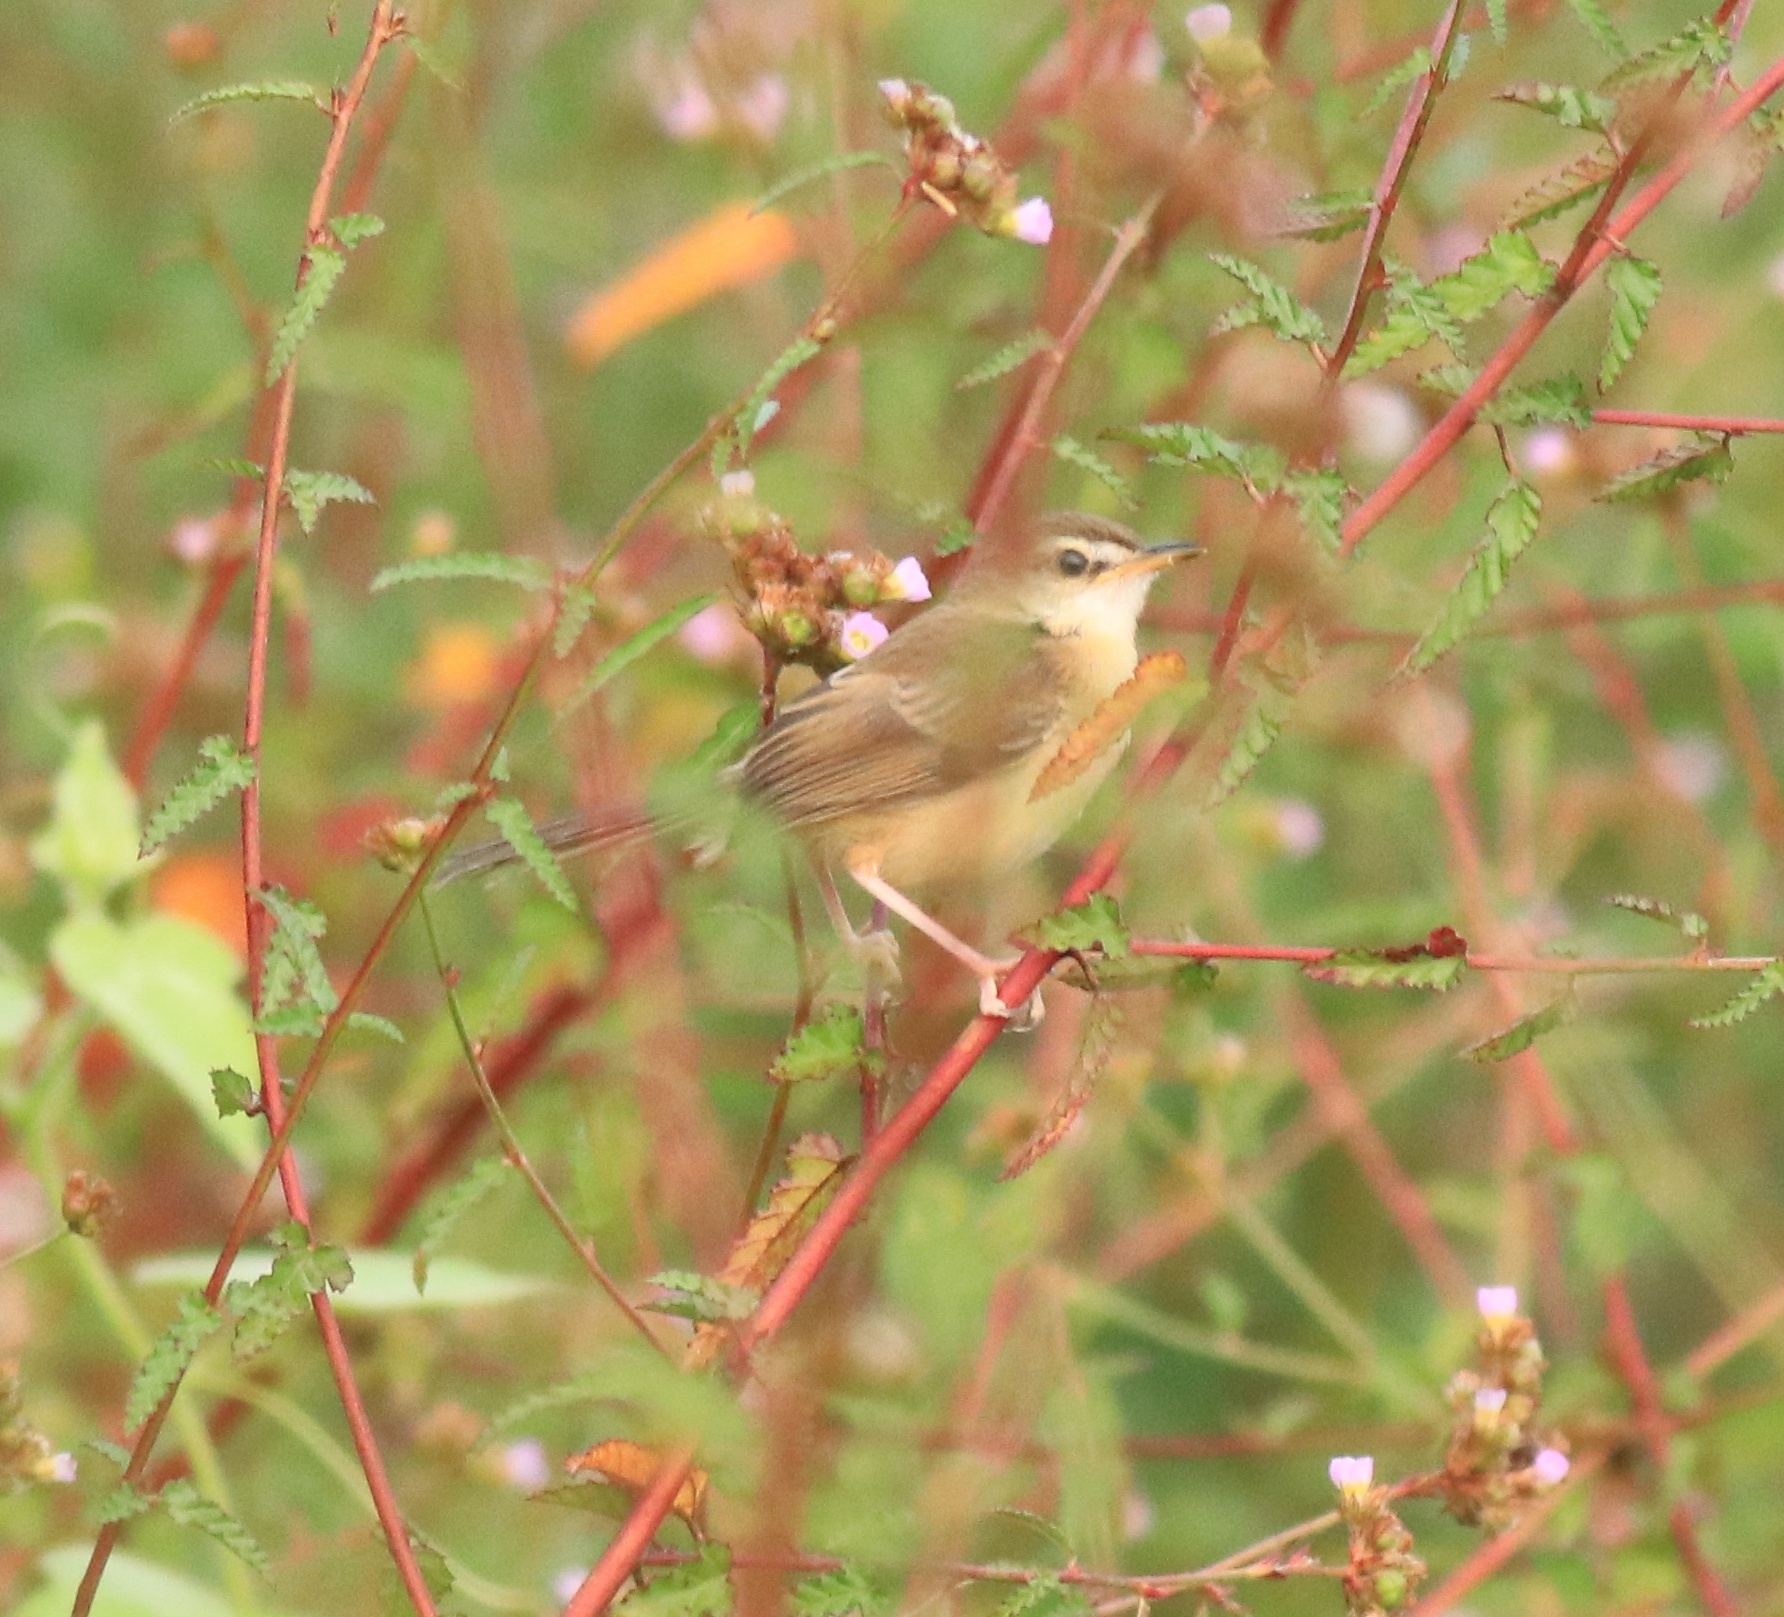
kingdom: Animalia
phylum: Chordata
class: Aves
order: Passeriformes
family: Cisticolidae
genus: Prinia
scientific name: Prinia inornata
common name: Plain prinia
